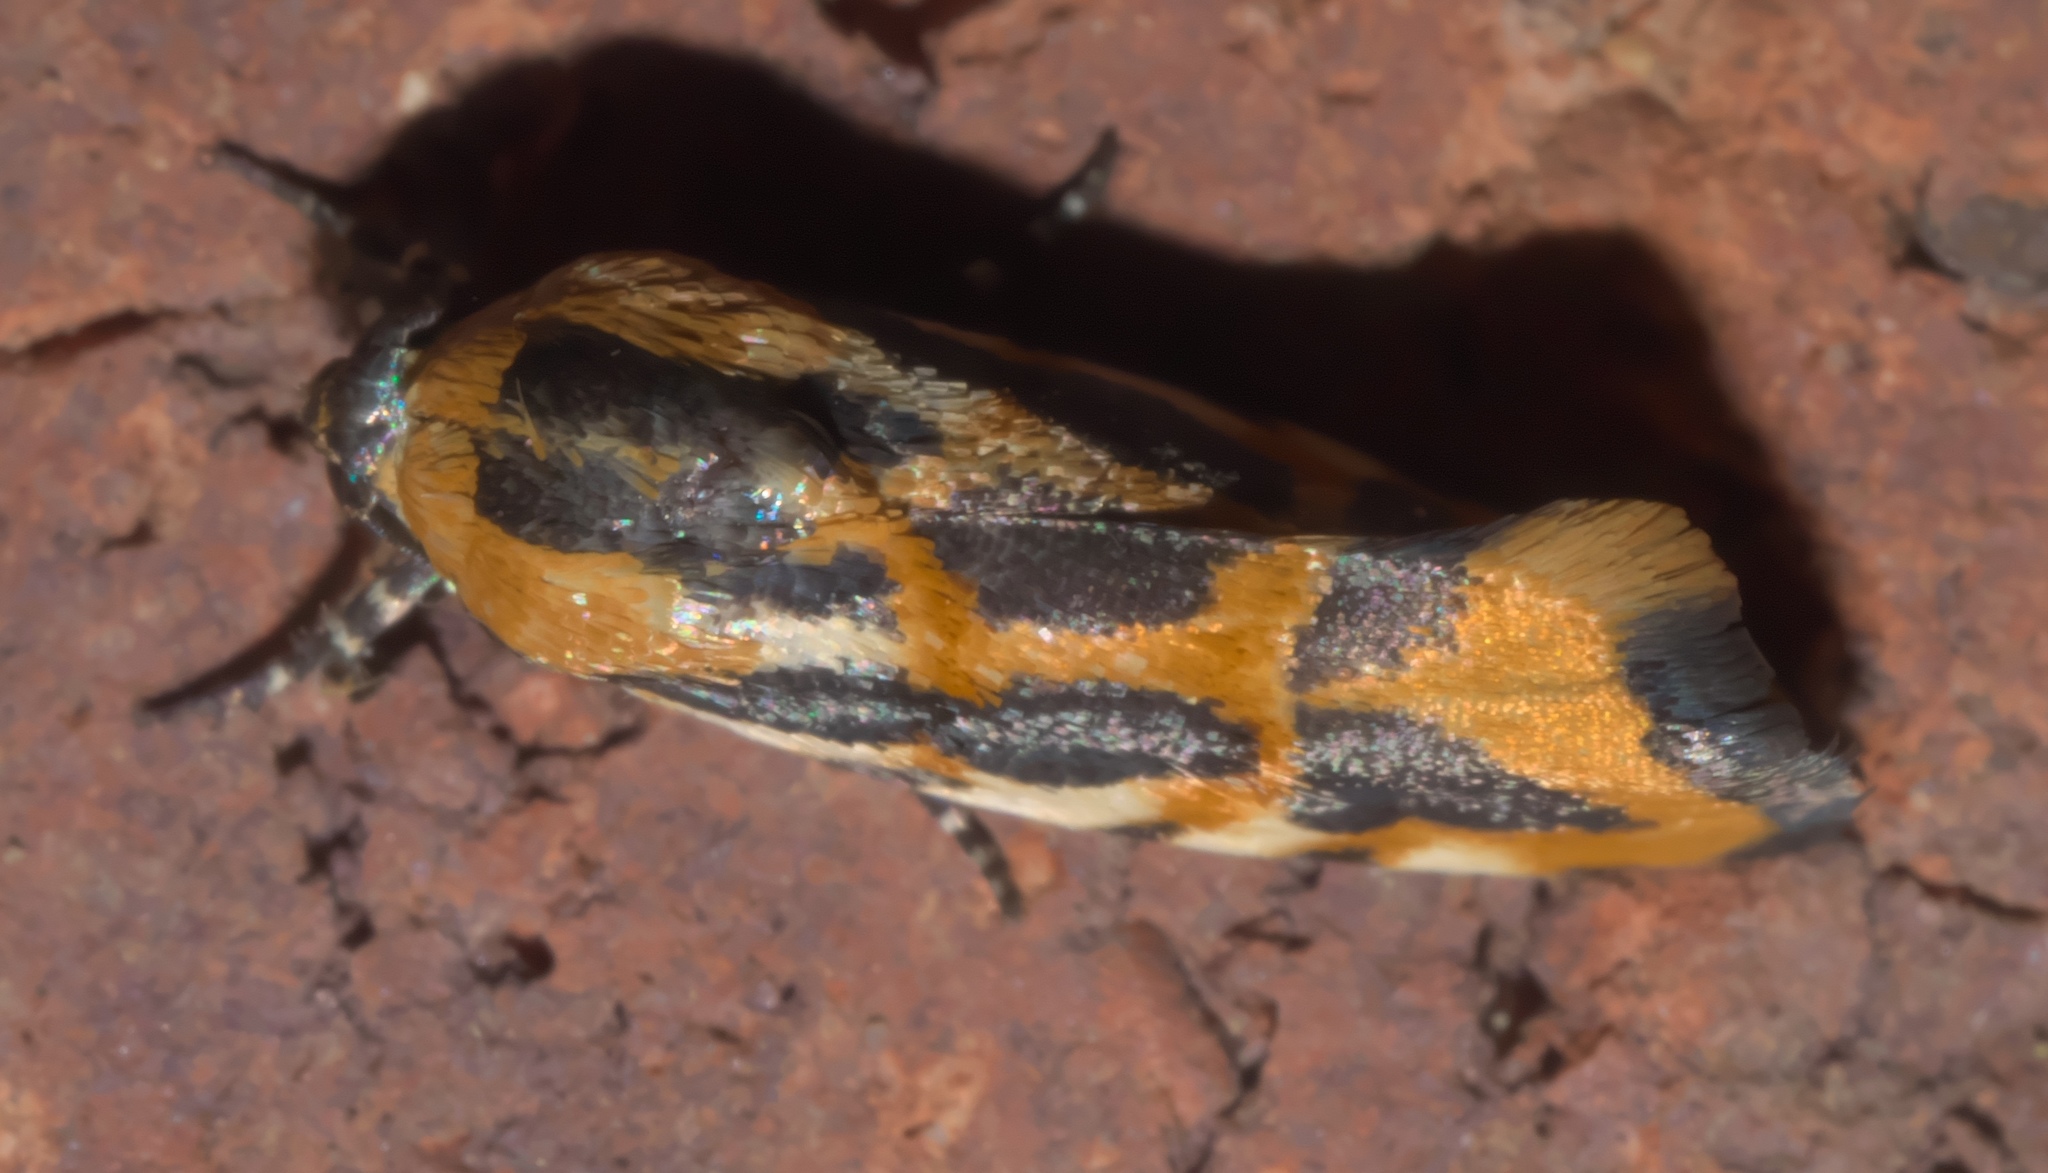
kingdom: Animalia
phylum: Arthropoda
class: Insecta
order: Lepidoptera
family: Noctuidae
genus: Acontia
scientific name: Acontia leo
